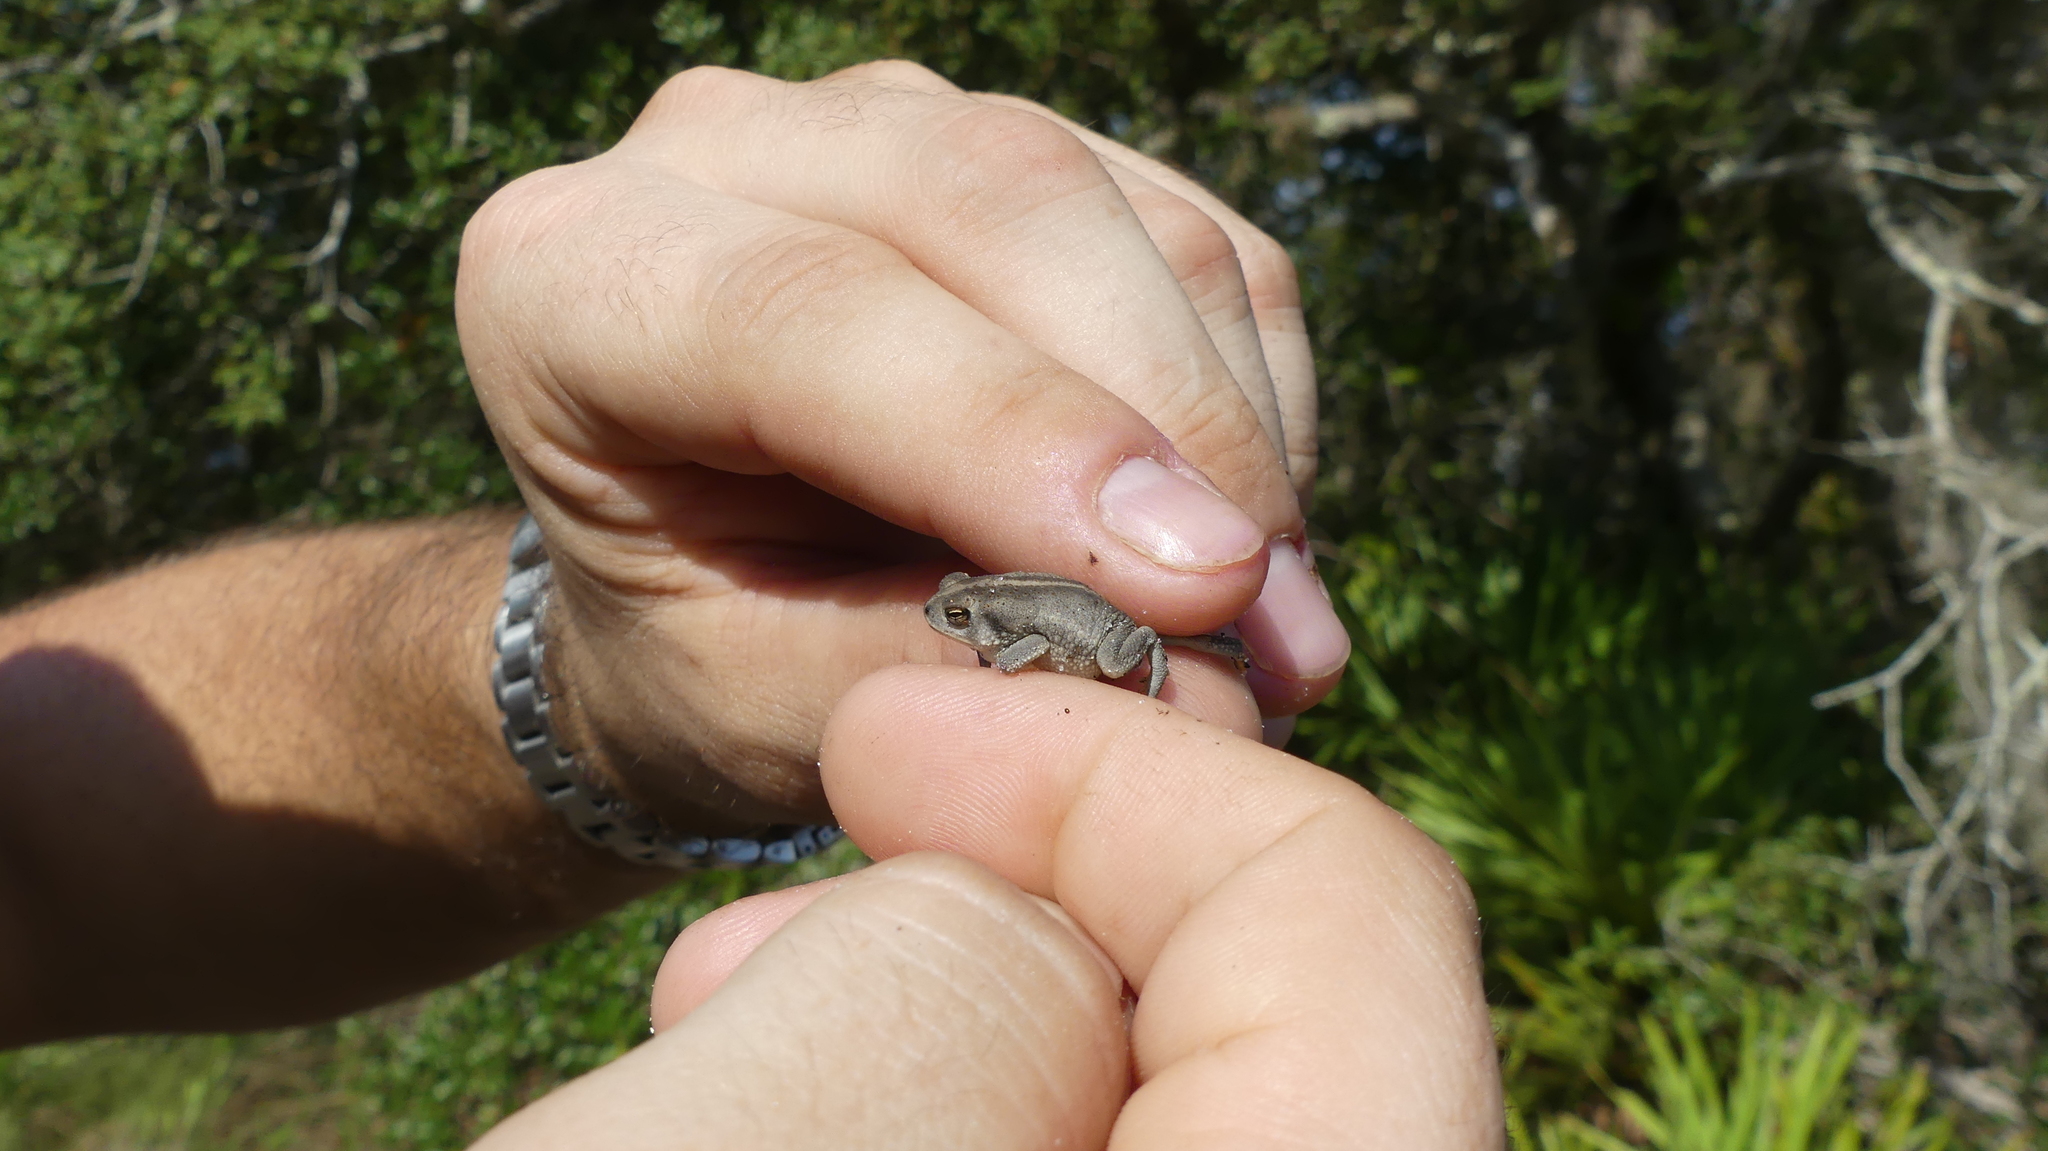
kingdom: Animalia
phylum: Chordata
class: Amphibia
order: Anura
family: Bufonidae
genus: Anaxyrus
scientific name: Anaxyrus quercicus
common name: Oak toad
